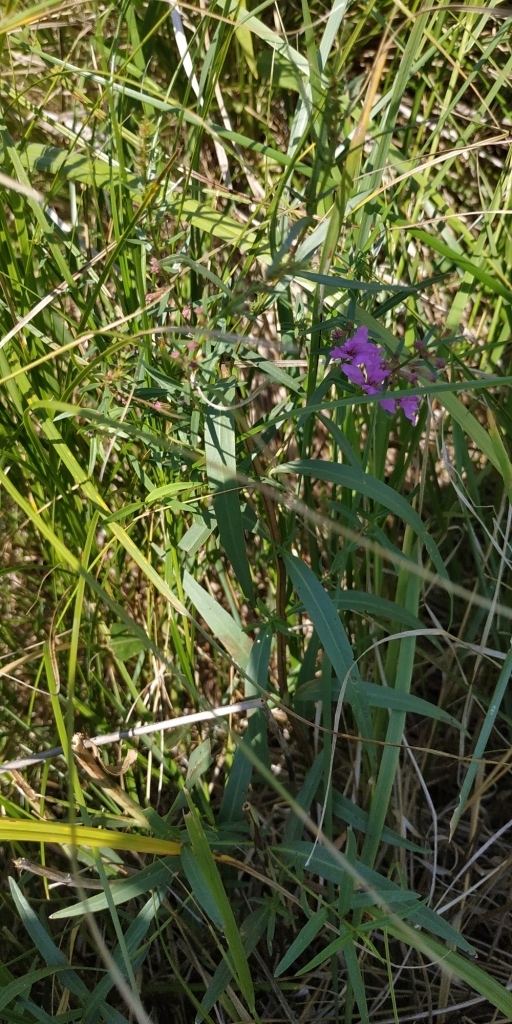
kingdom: Plantae
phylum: Tracheophyta
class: Magnoliopsida
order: Myrtales
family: Lythraceae
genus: Lythrum
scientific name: Lythrum salicaria
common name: Purple loosestrife
